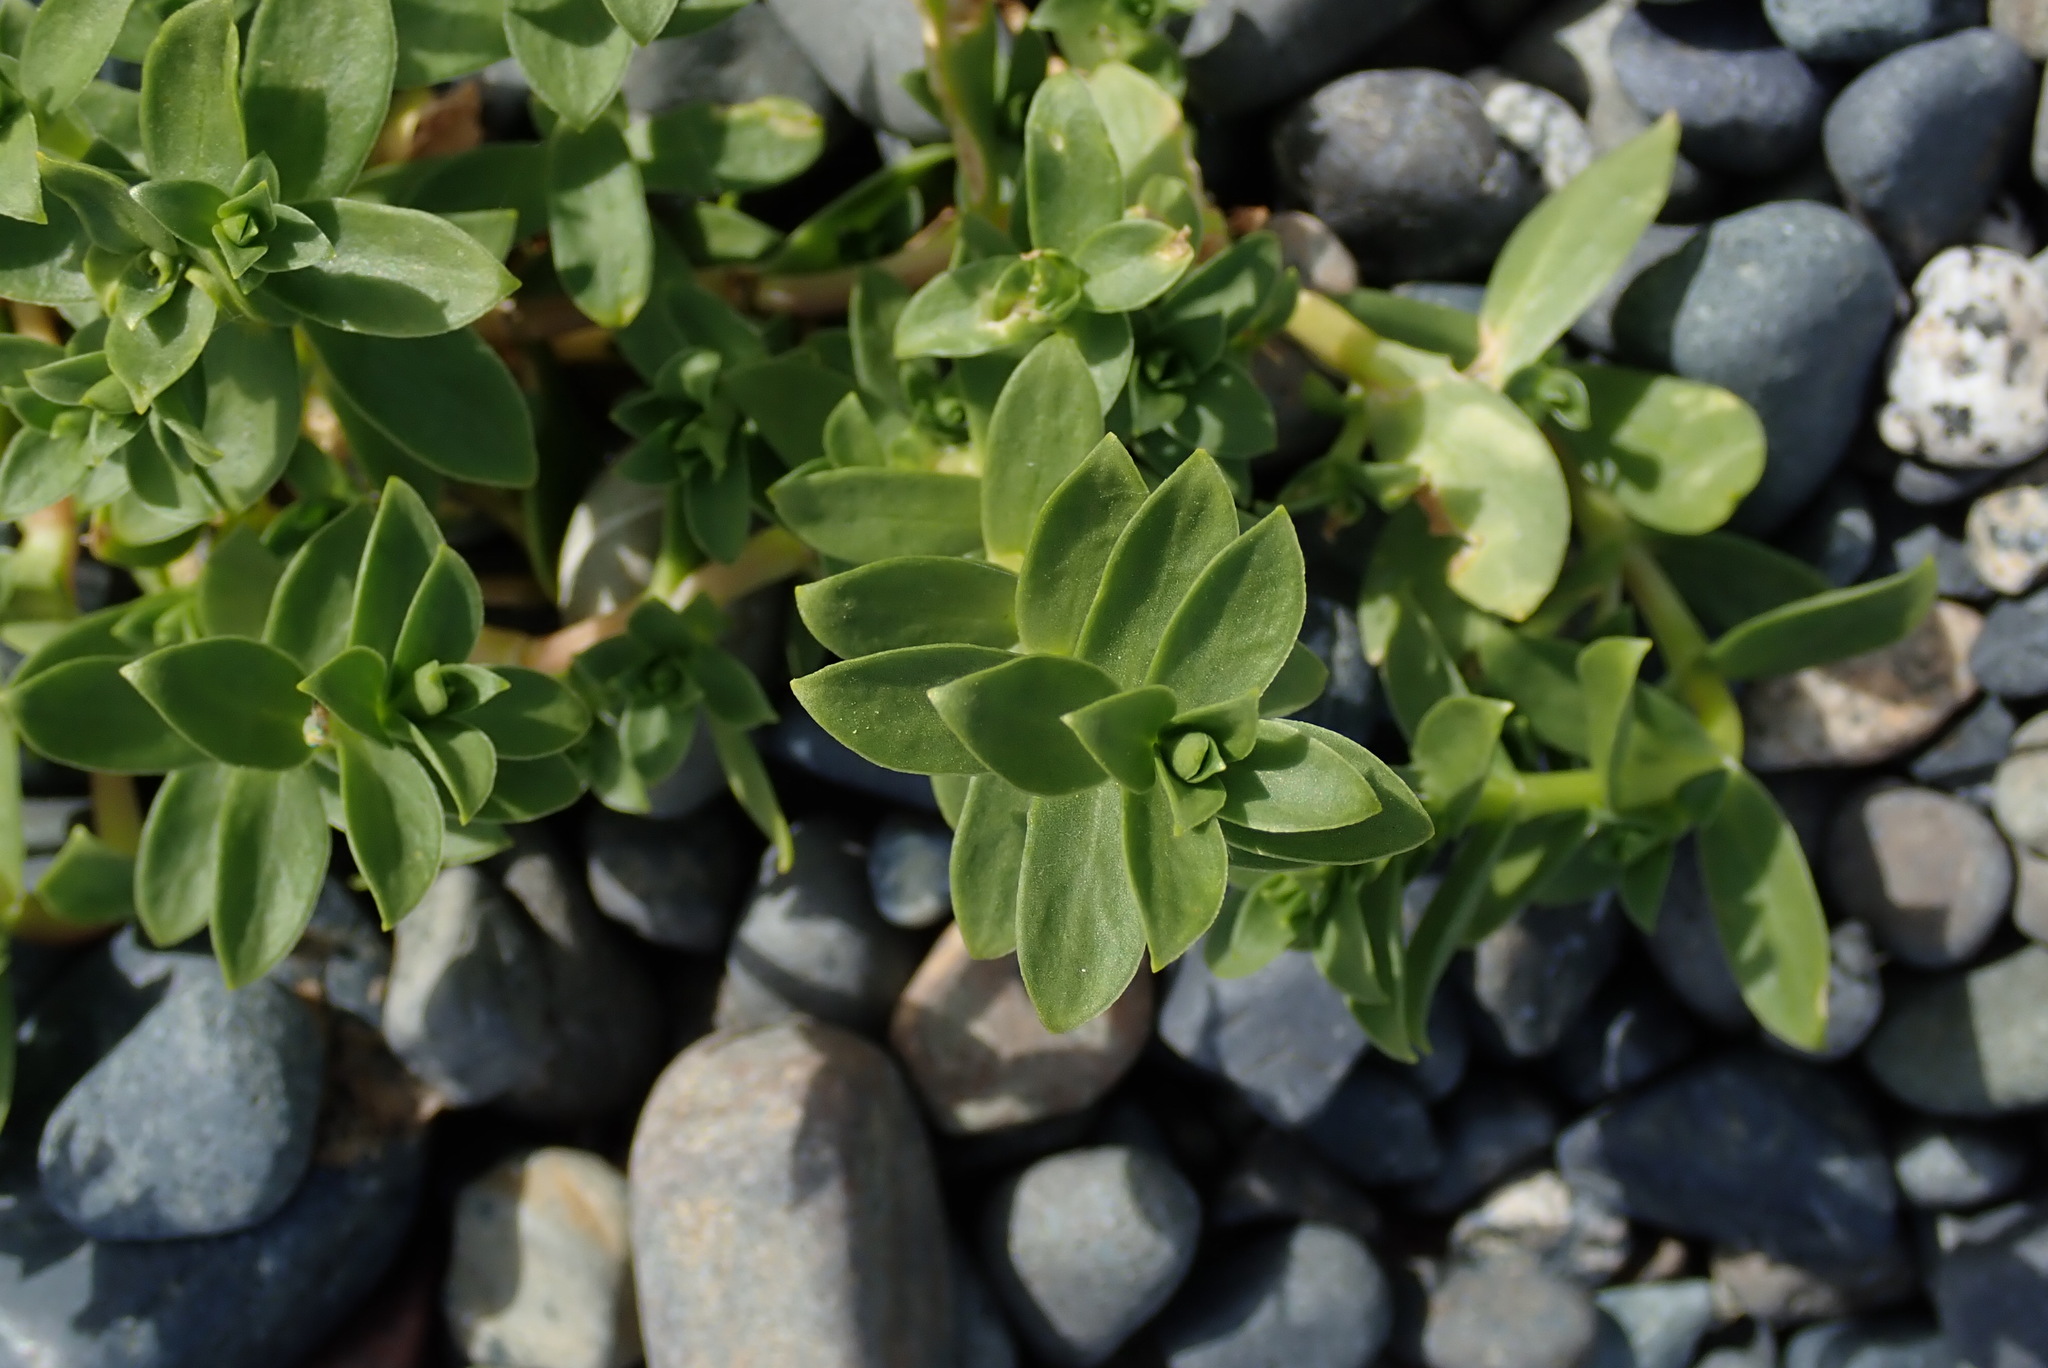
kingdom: Plantae
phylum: Tracheophyta
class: Magnoliopsida
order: Caryophyllales
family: Caryophyllaceae
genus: Honckenya
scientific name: Honckenya peploides
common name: Sea sandwort
